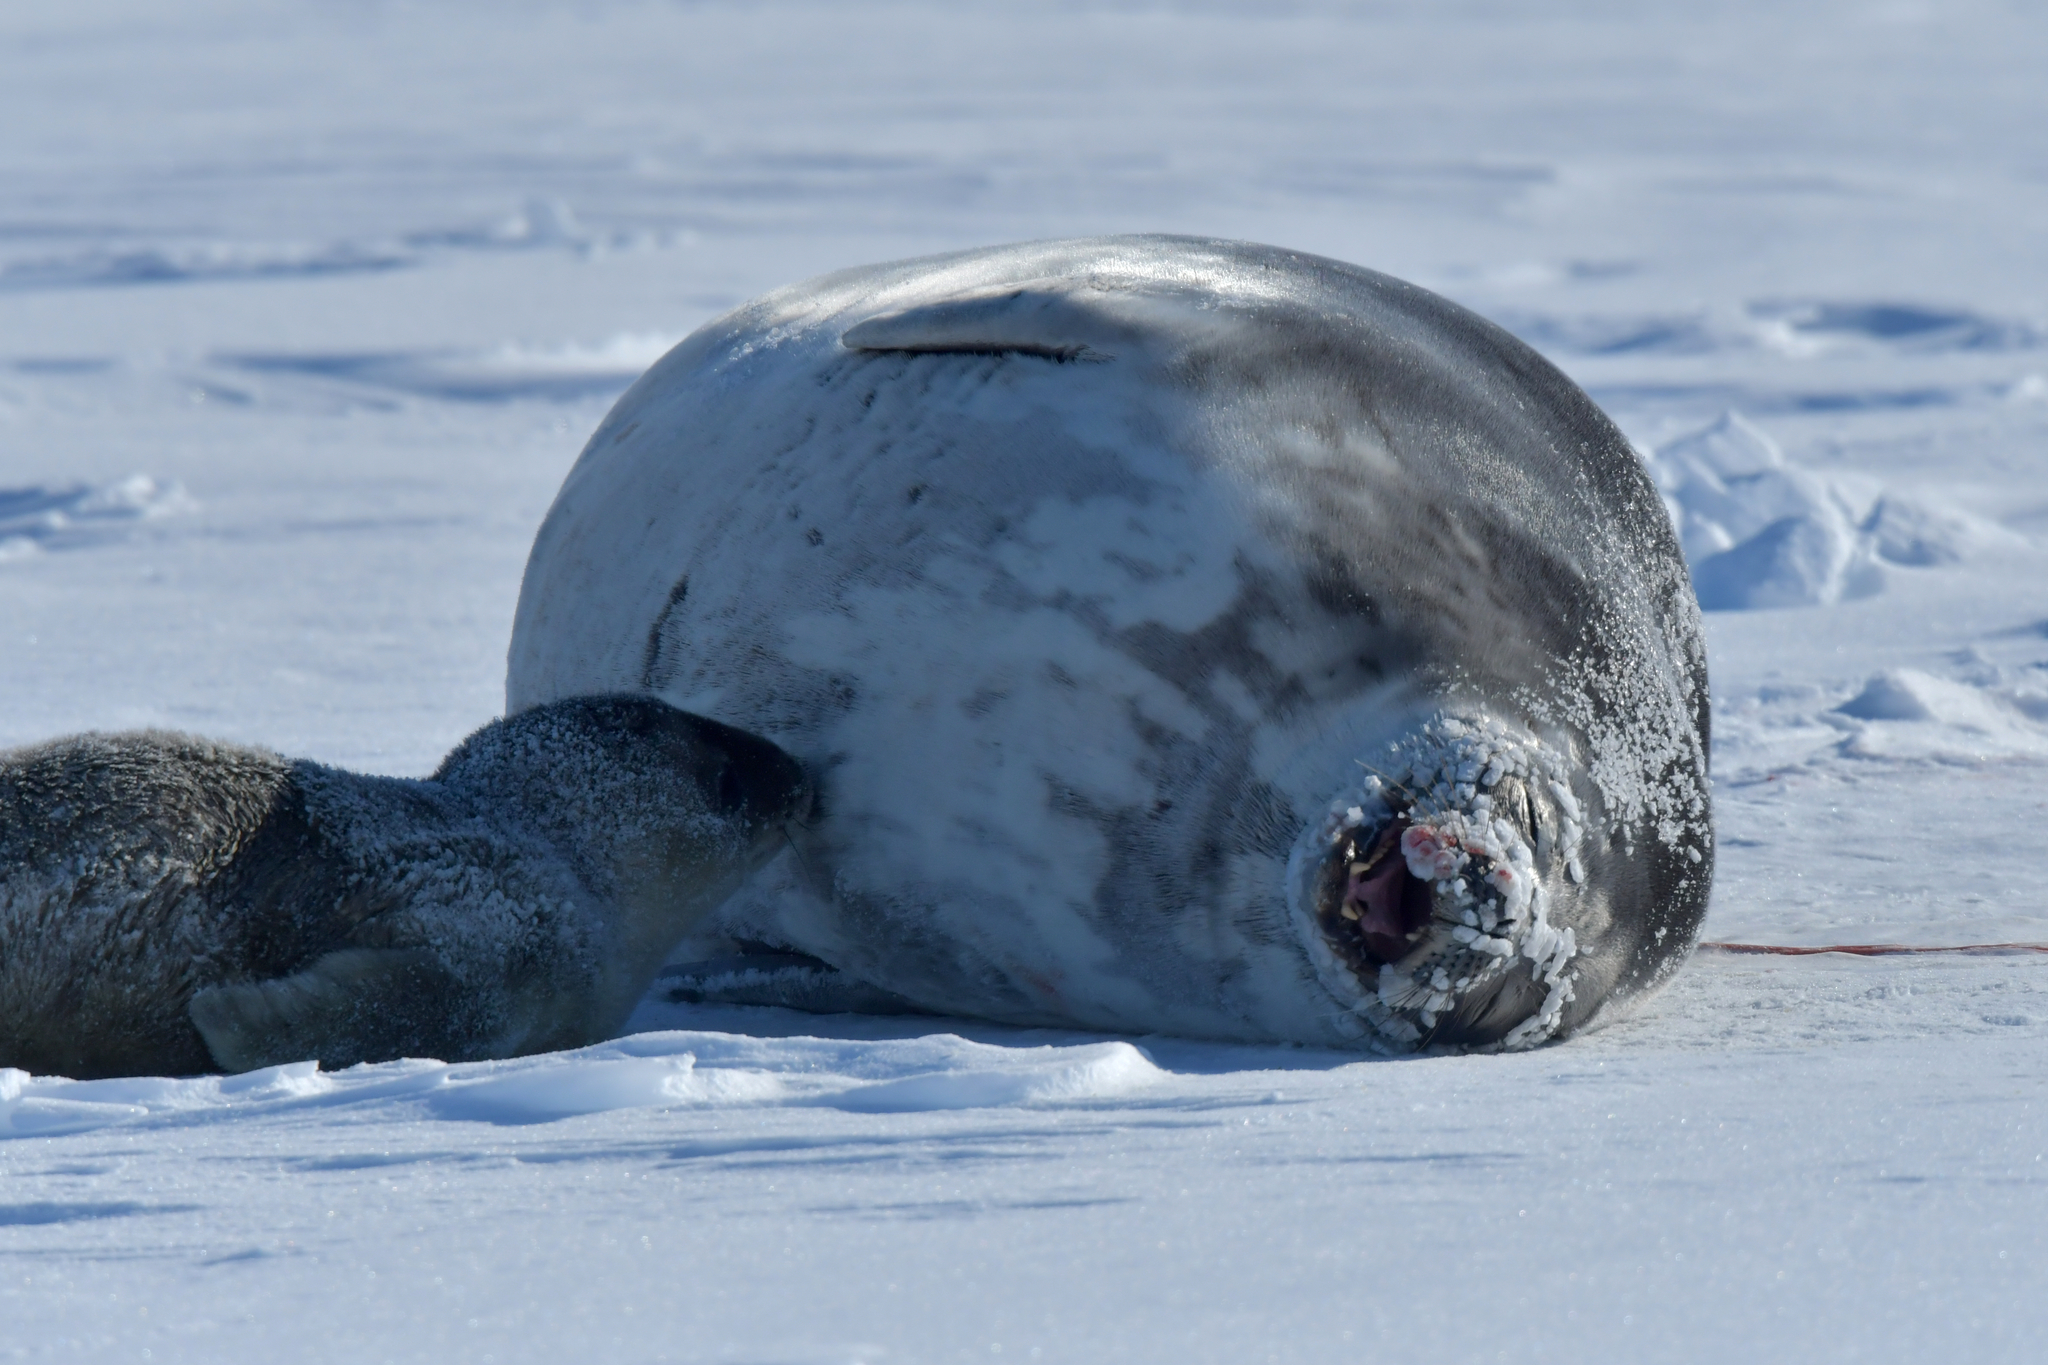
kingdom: Animalia
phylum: Chordata
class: Mammalia
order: Carnivora
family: Phocidae
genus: Leptonychotes
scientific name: Leptonychotes weddellii
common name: Weddell seal
